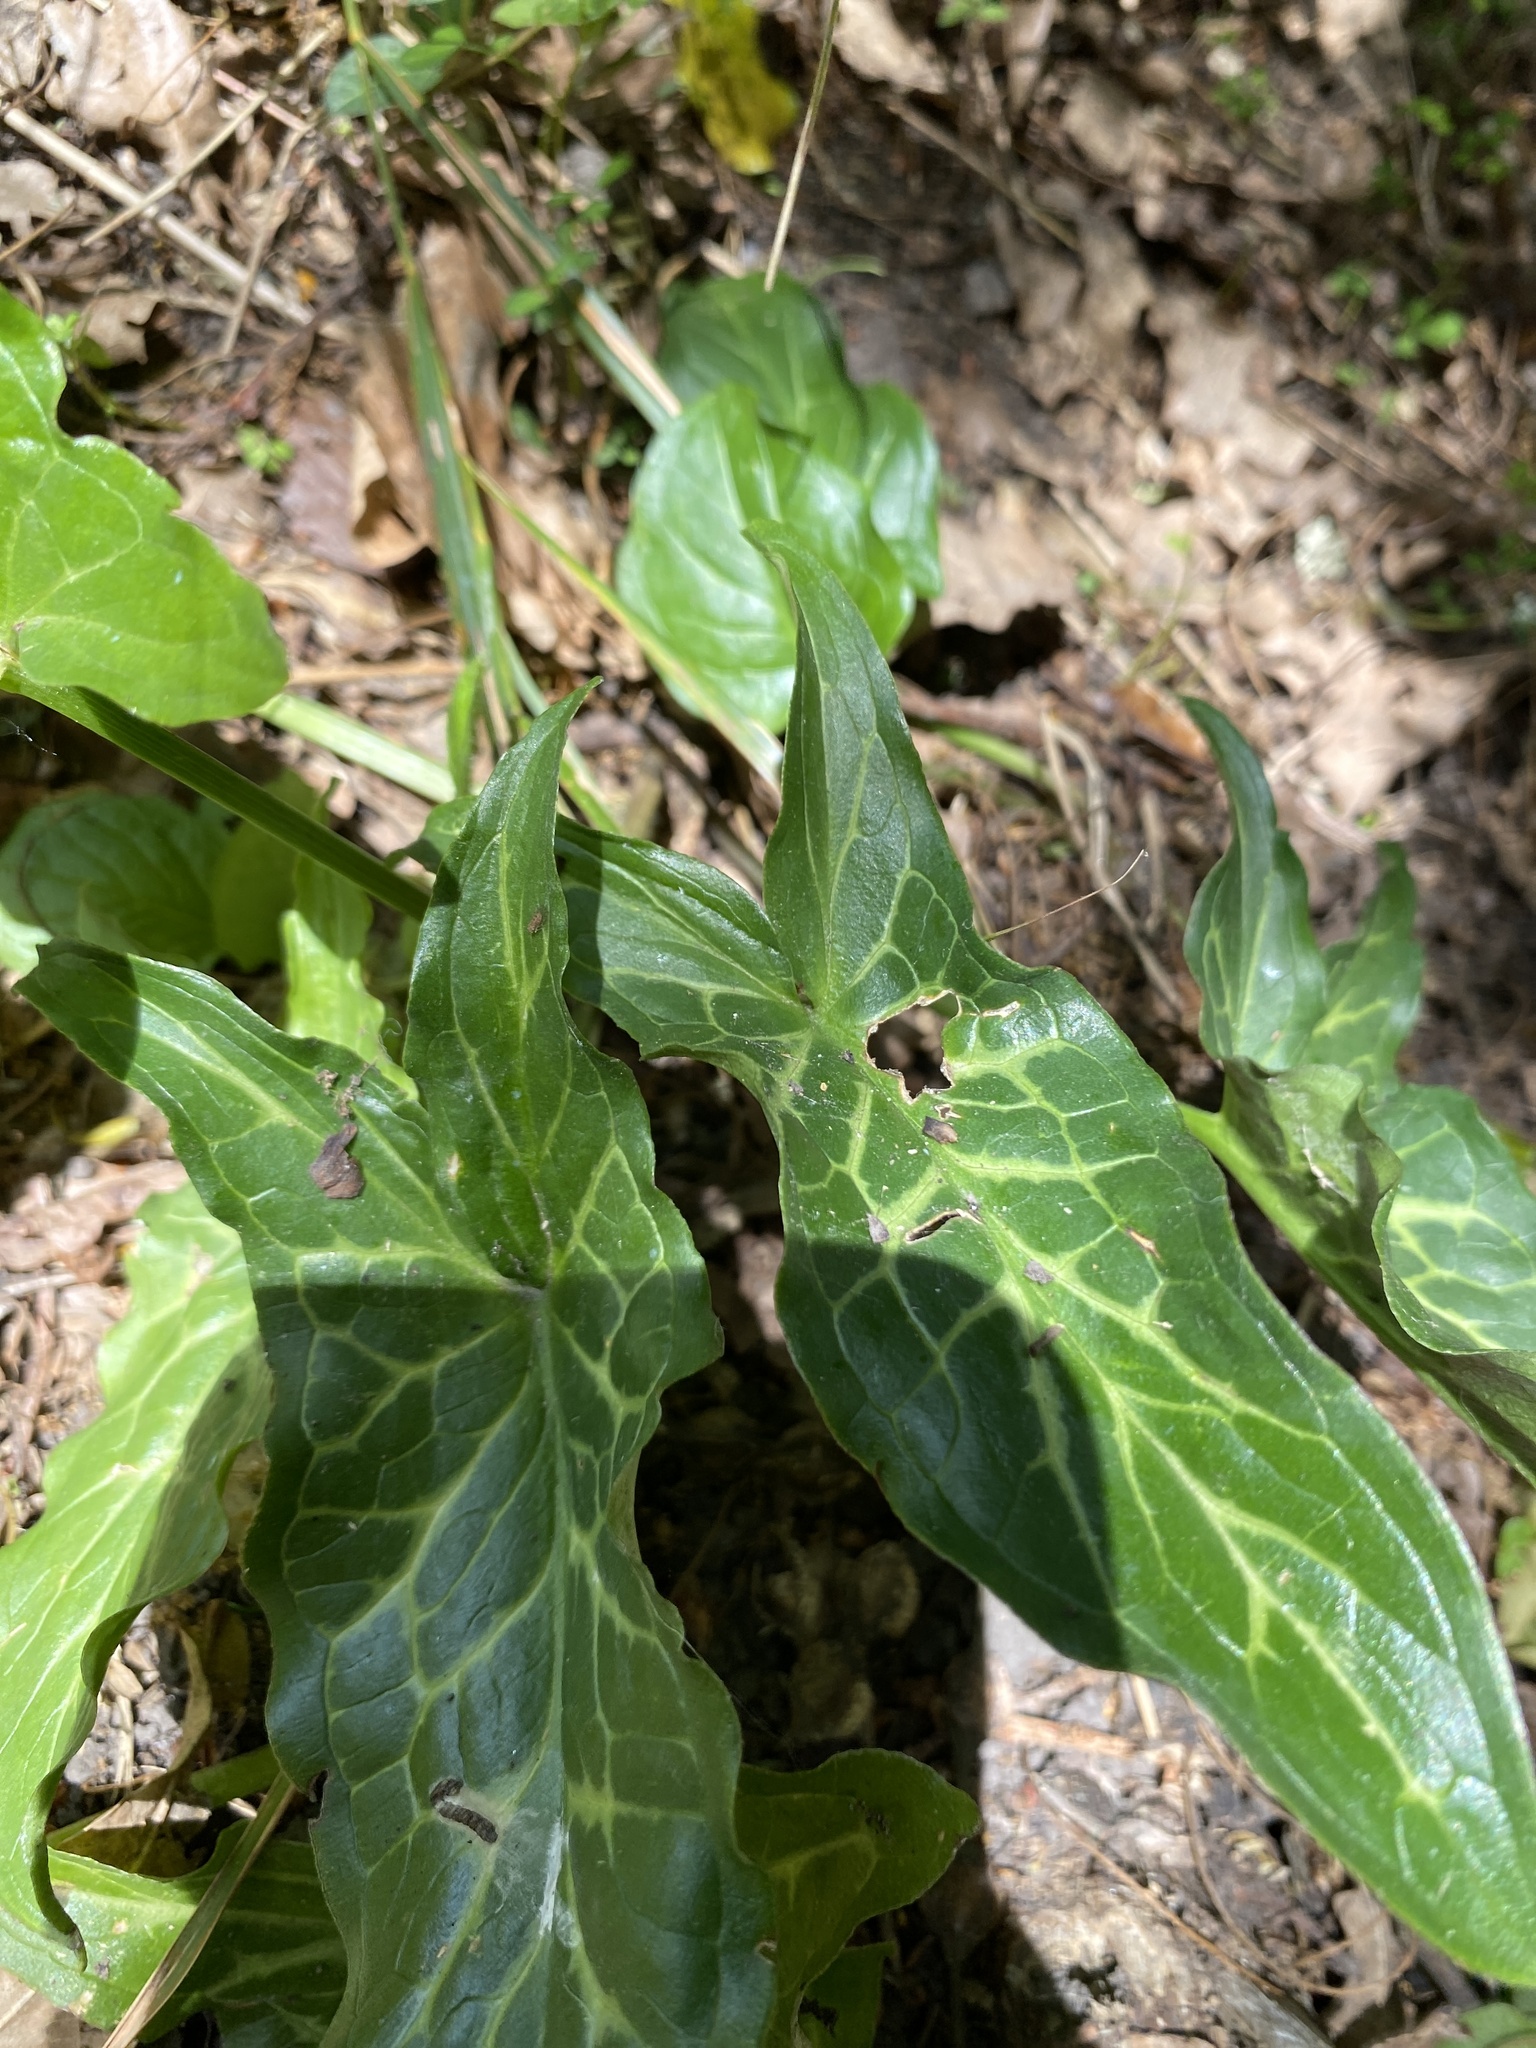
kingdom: Plantae
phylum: Tracheophyta
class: Liliopsida
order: Alismatales
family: Araceae
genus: Arum
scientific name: Arum italicum
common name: Italian lords-and-ladies
